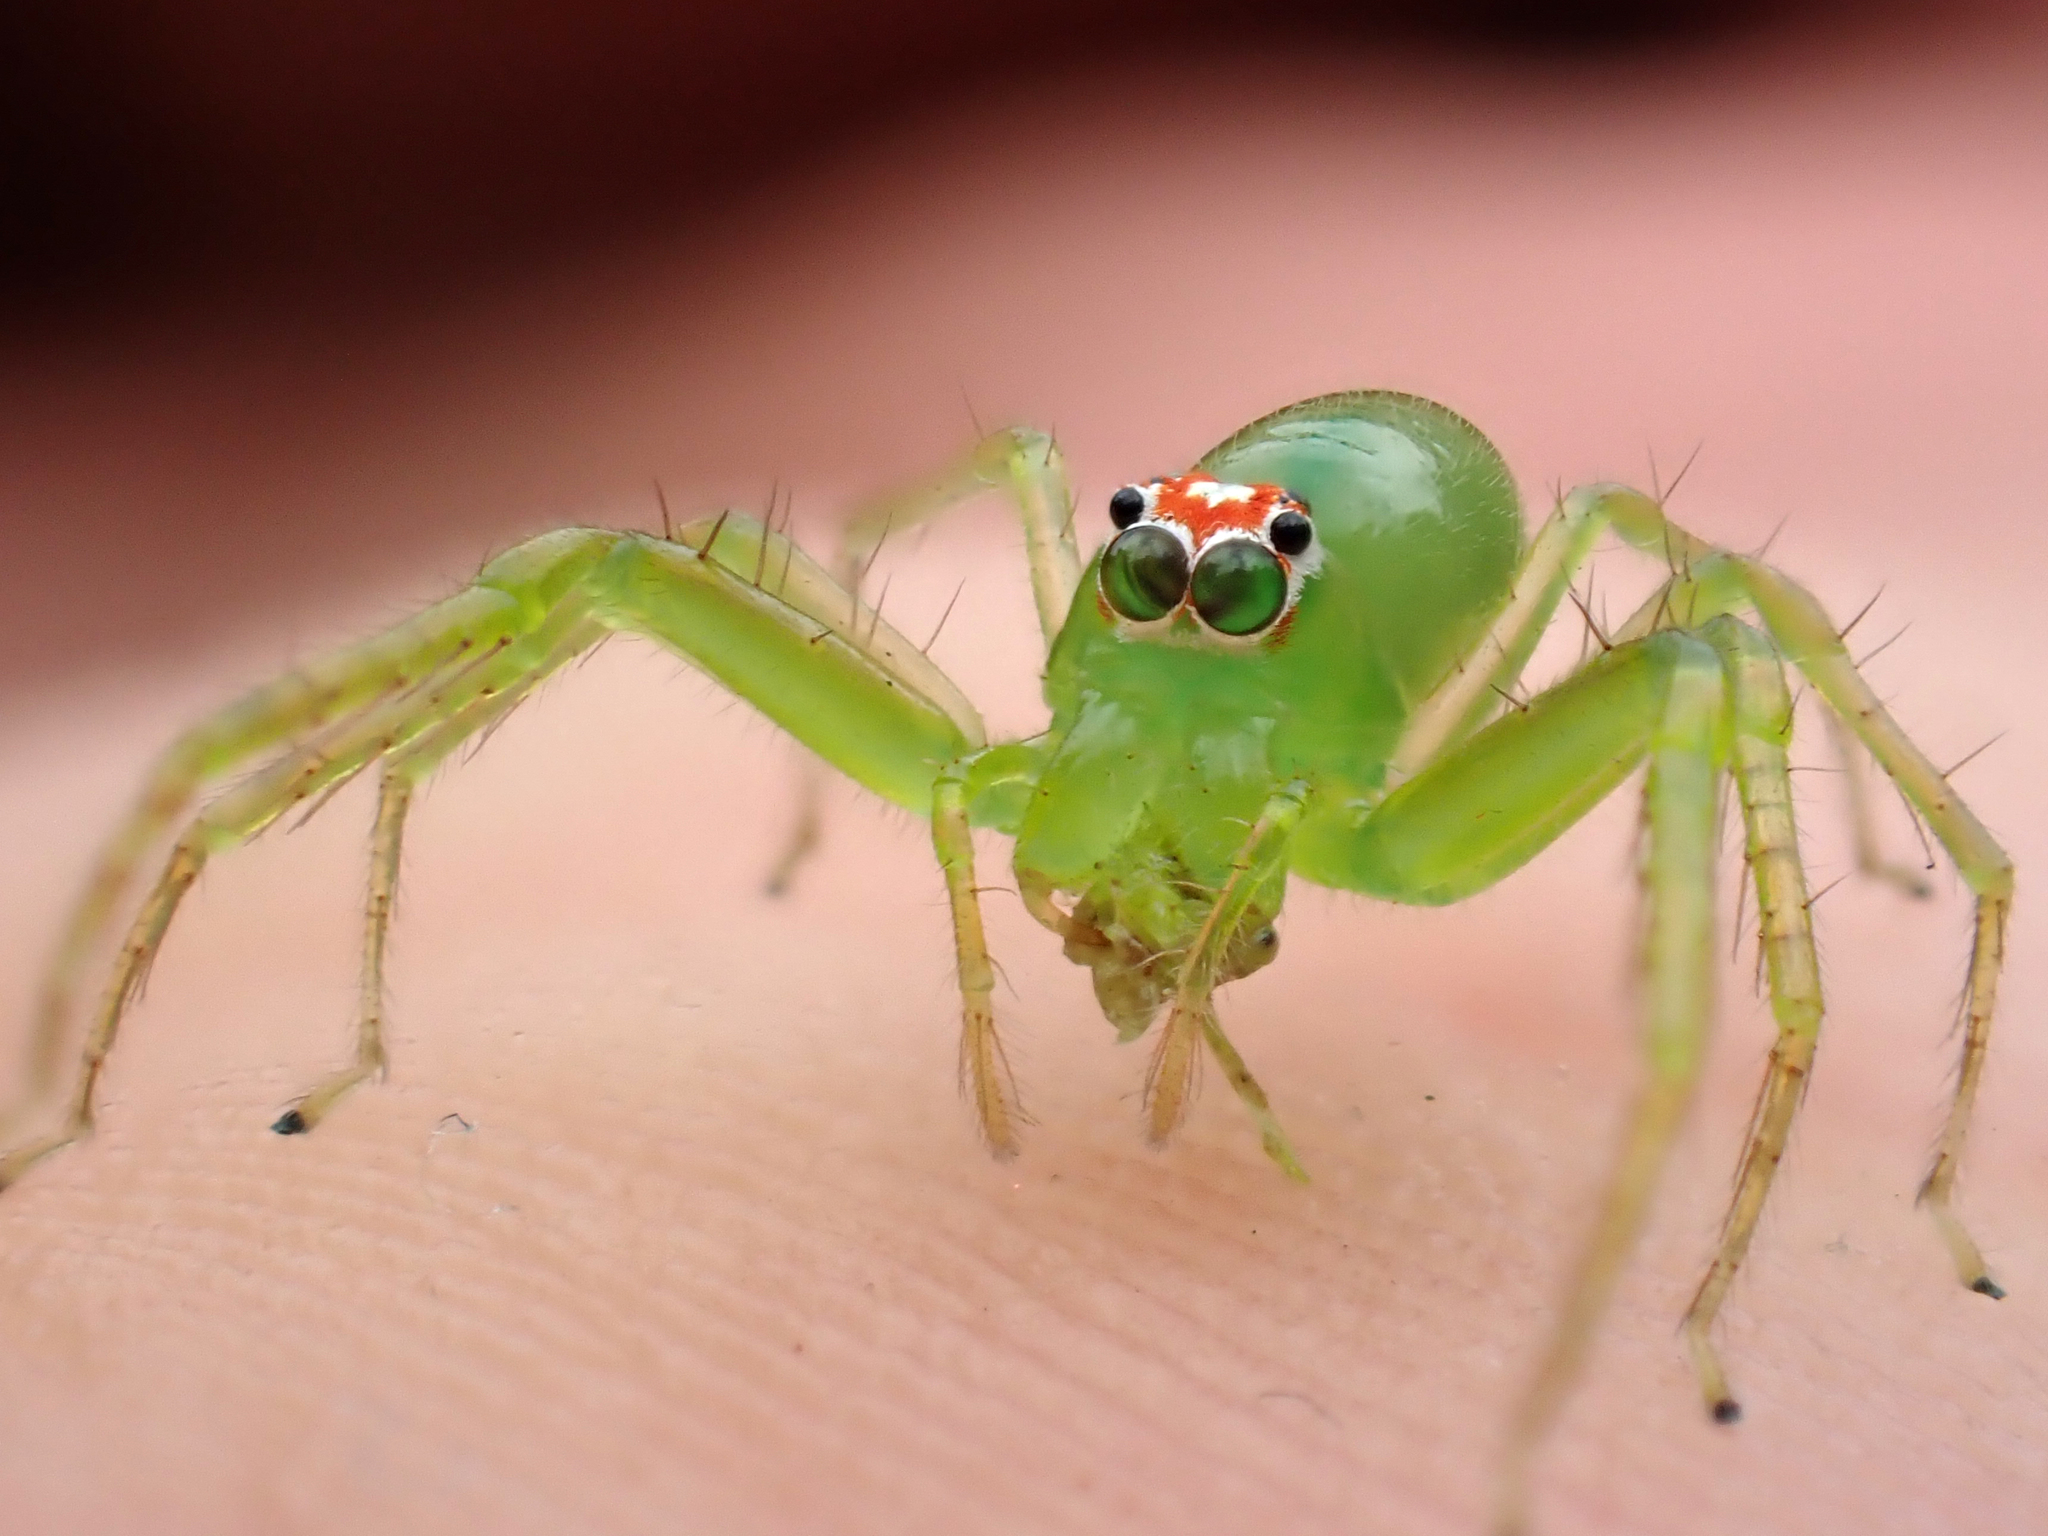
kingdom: Animalia
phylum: Arthropoda
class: Arachnida
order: Araneae
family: Salticidae
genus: Lyssomanes
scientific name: Lyssomanes viridis
